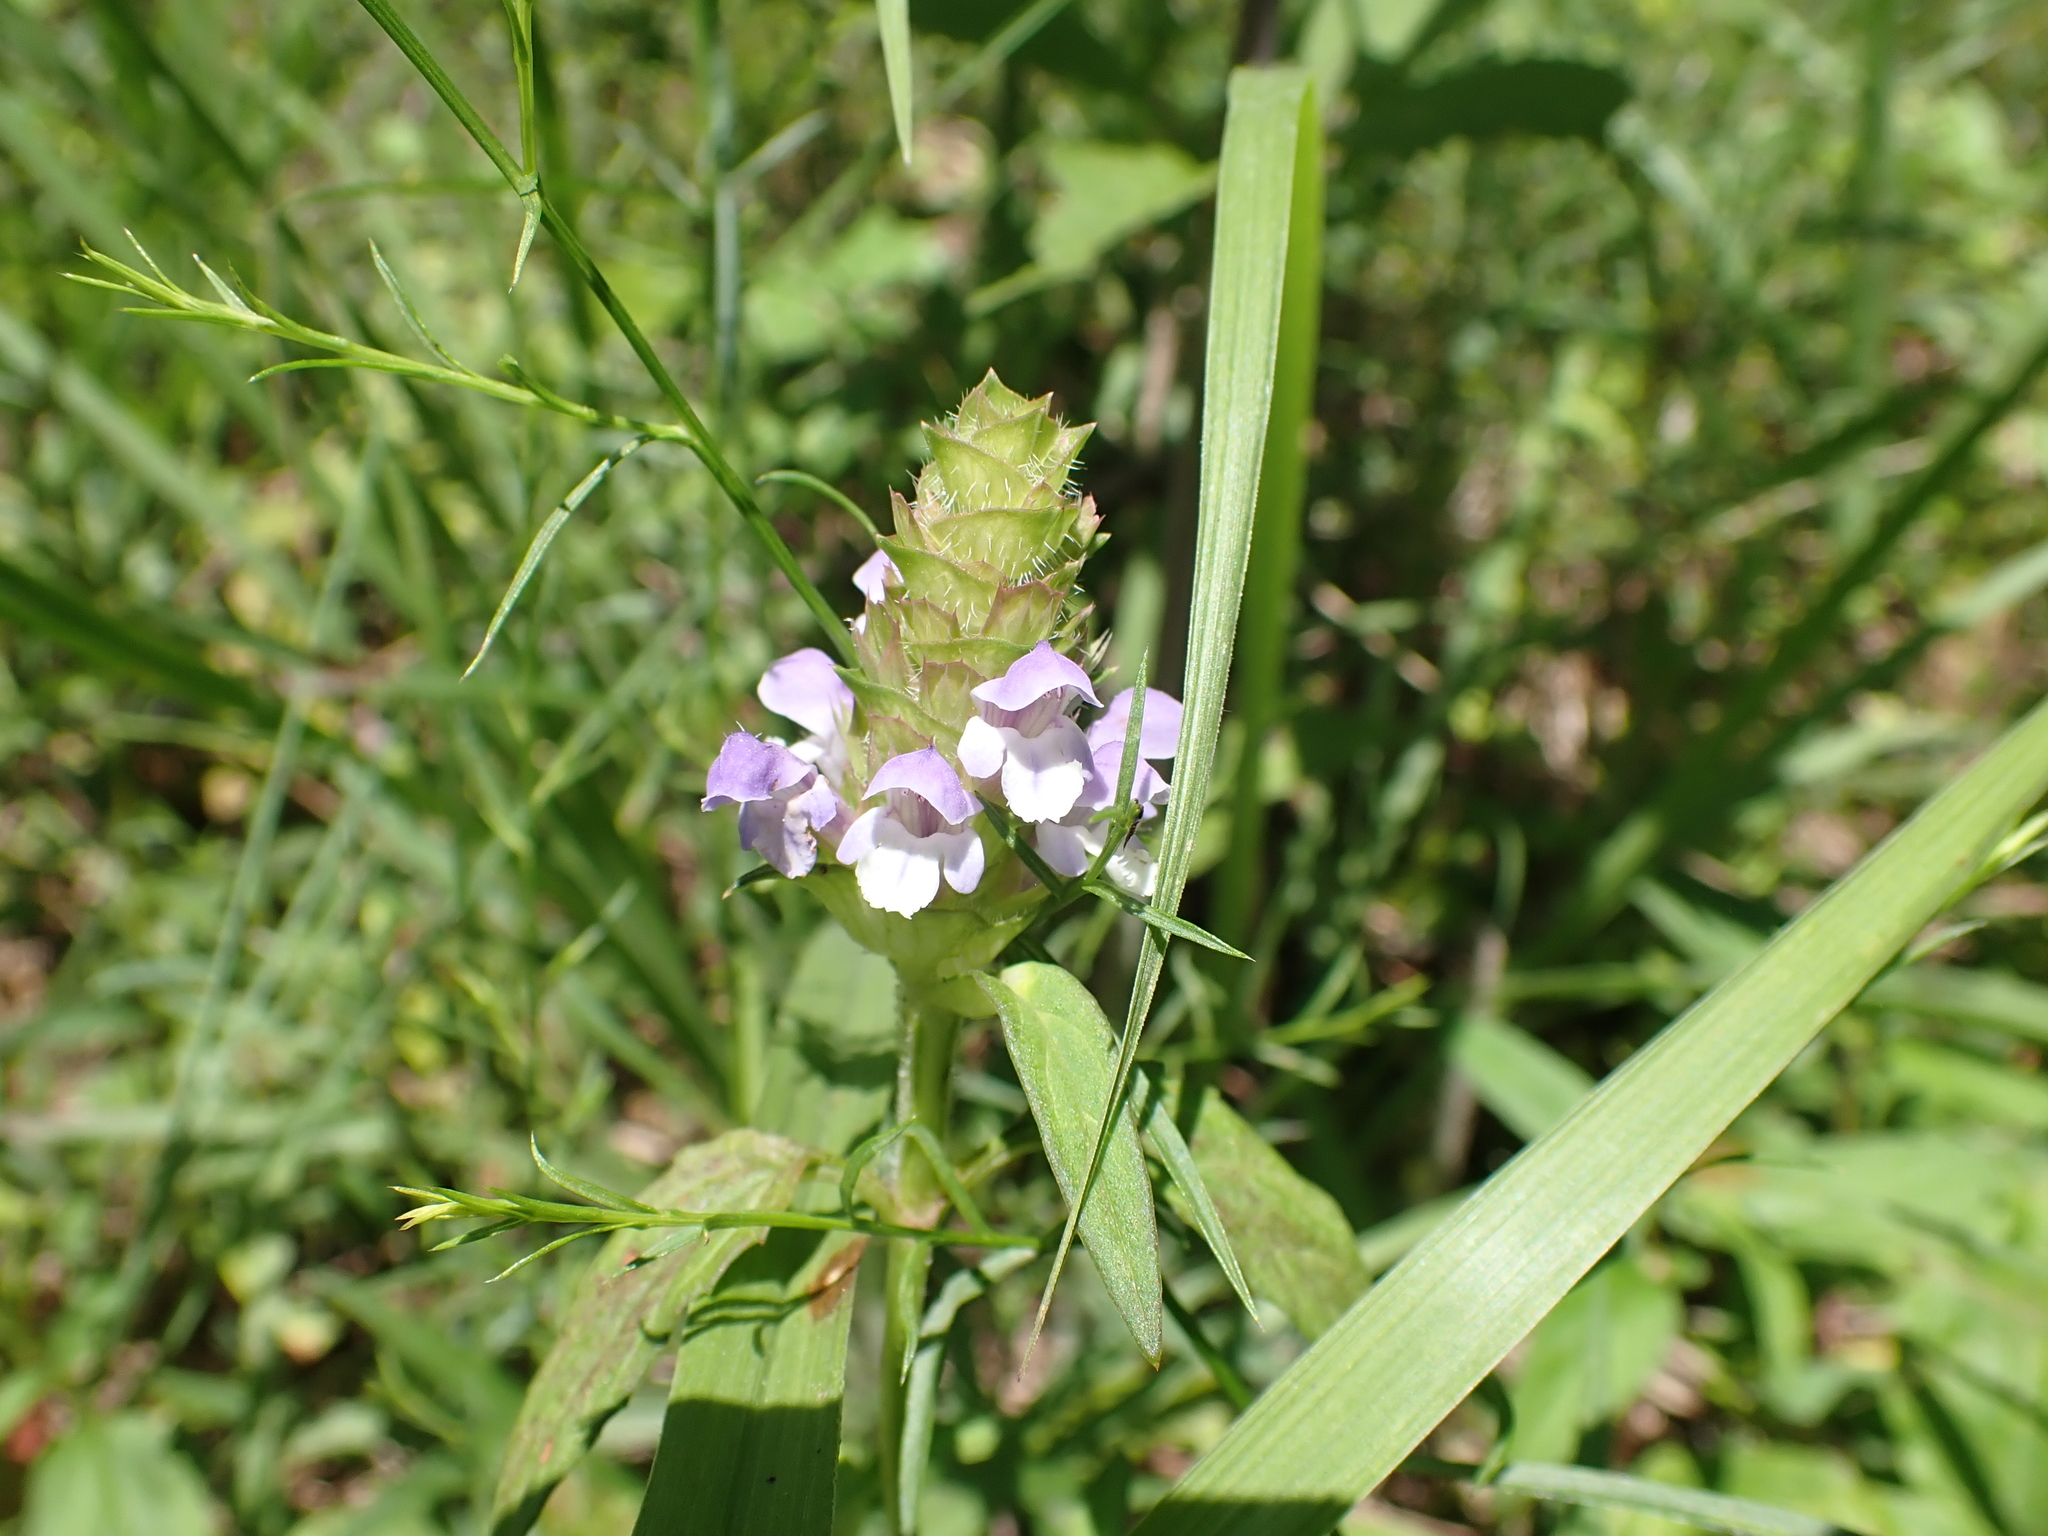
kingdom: Plantae
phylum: Tracheophyta
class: Magnoliopsida
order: Lamiales
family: Lamiaceae
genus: Prunella
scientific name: Prunella vulgaris
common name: Heal-all
